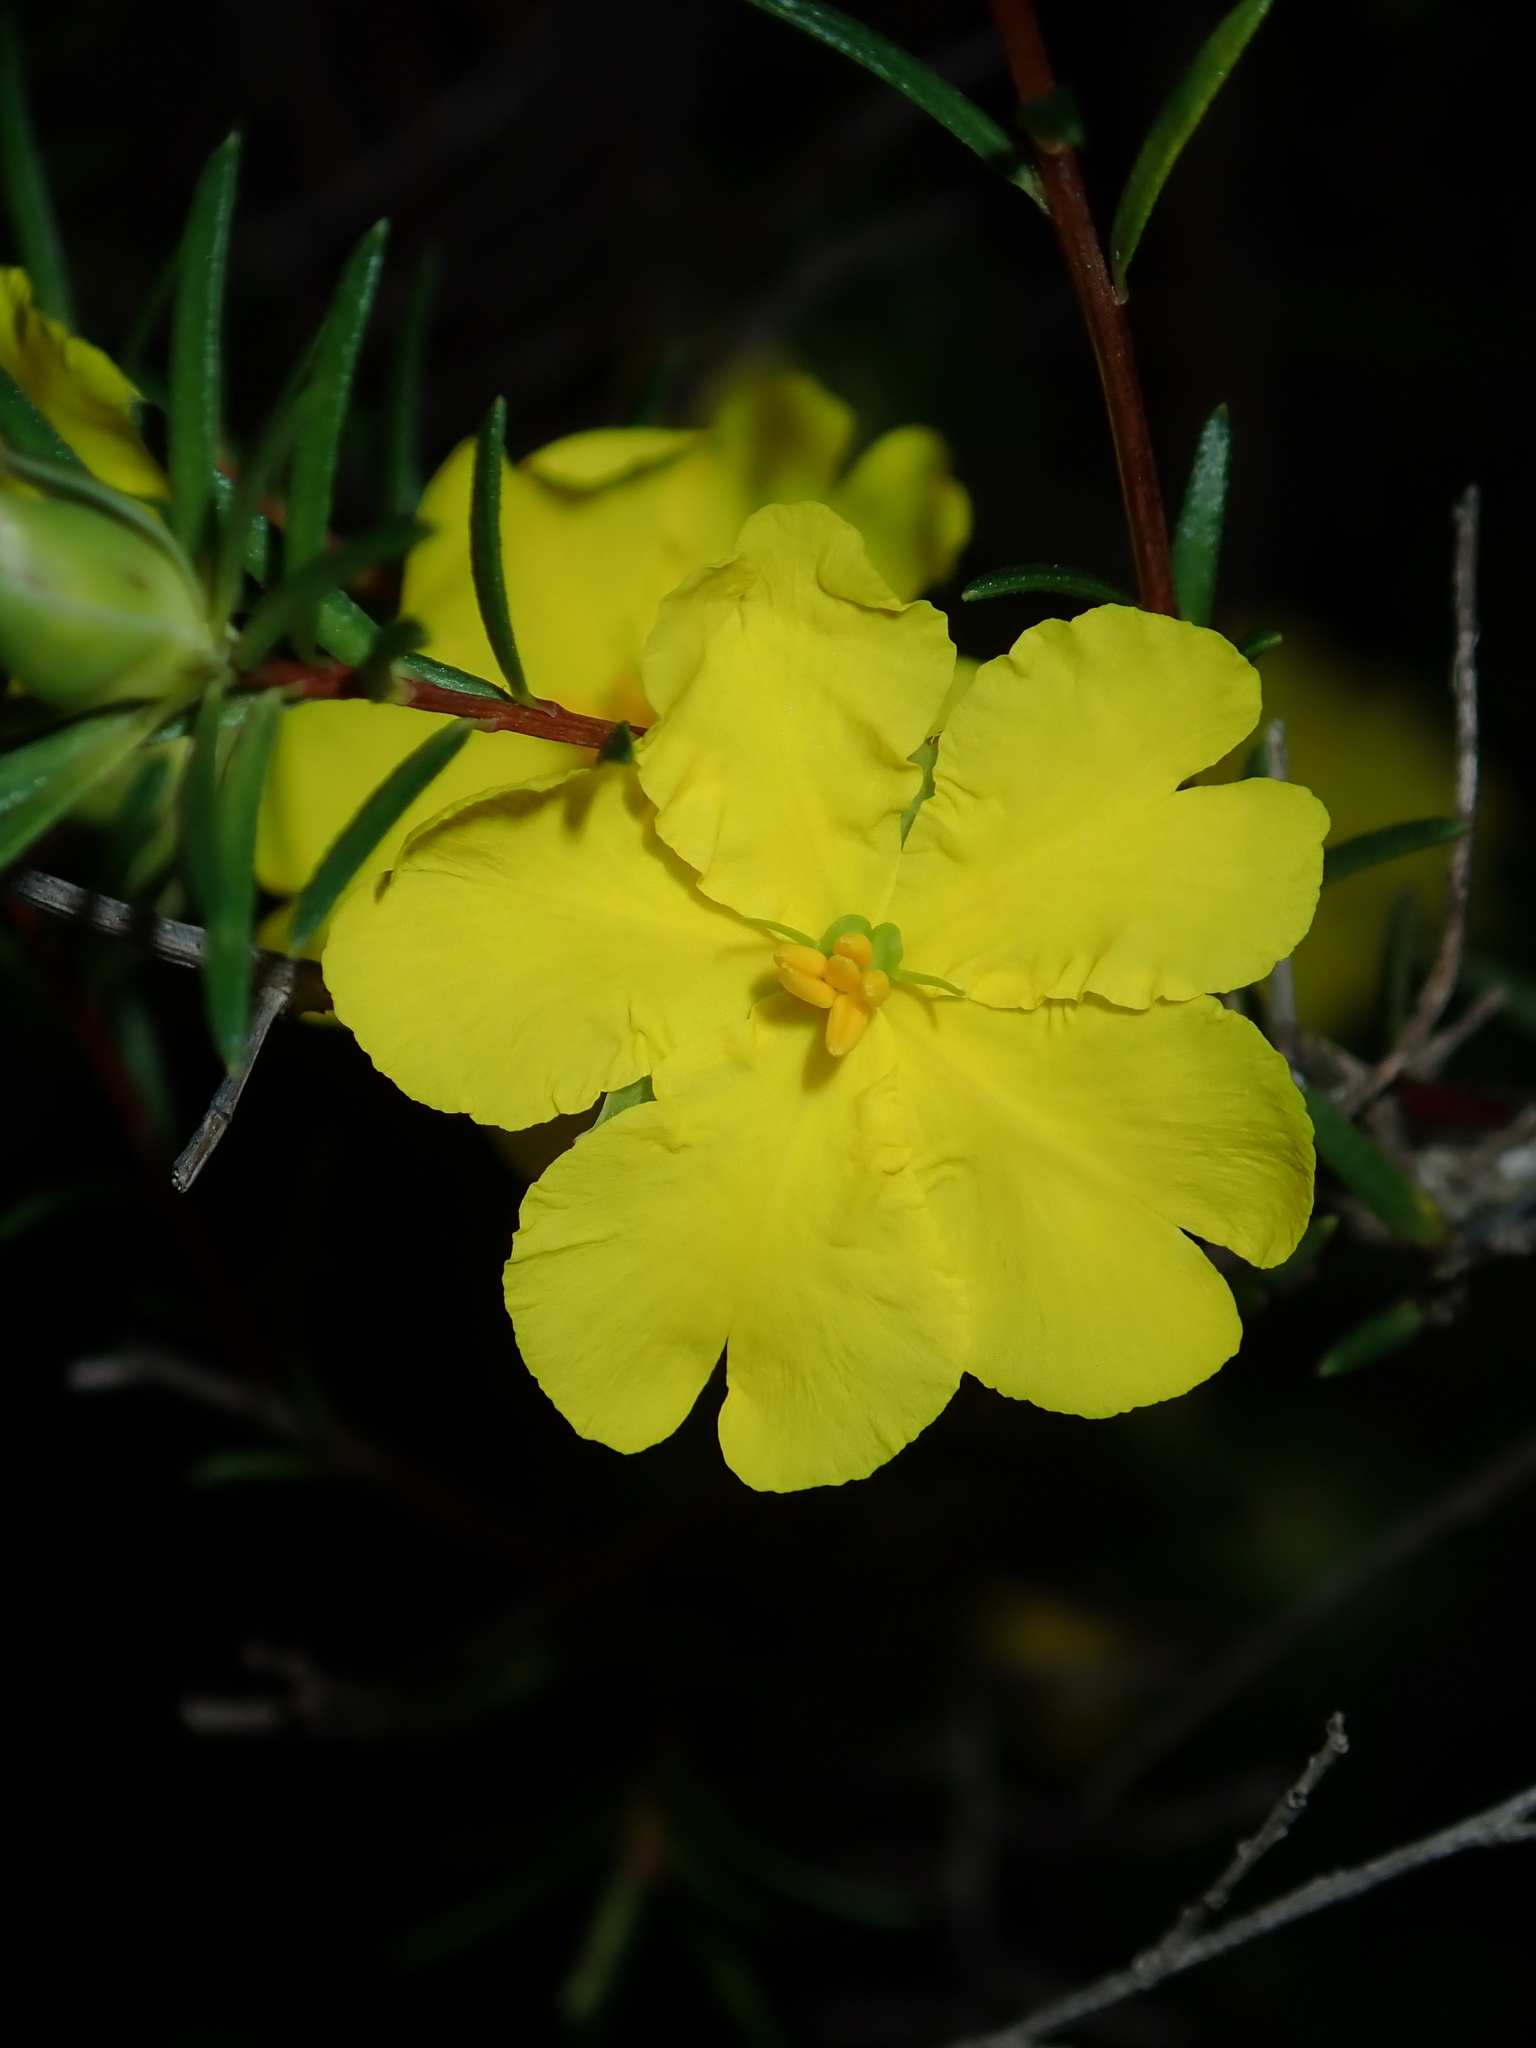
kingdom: Plantae
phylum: Tracheophyta
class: Magnoliopsida
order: Dilleniales
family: Dilleniaceae
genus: Hibbertia
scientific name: Hibbertia cistiflora
